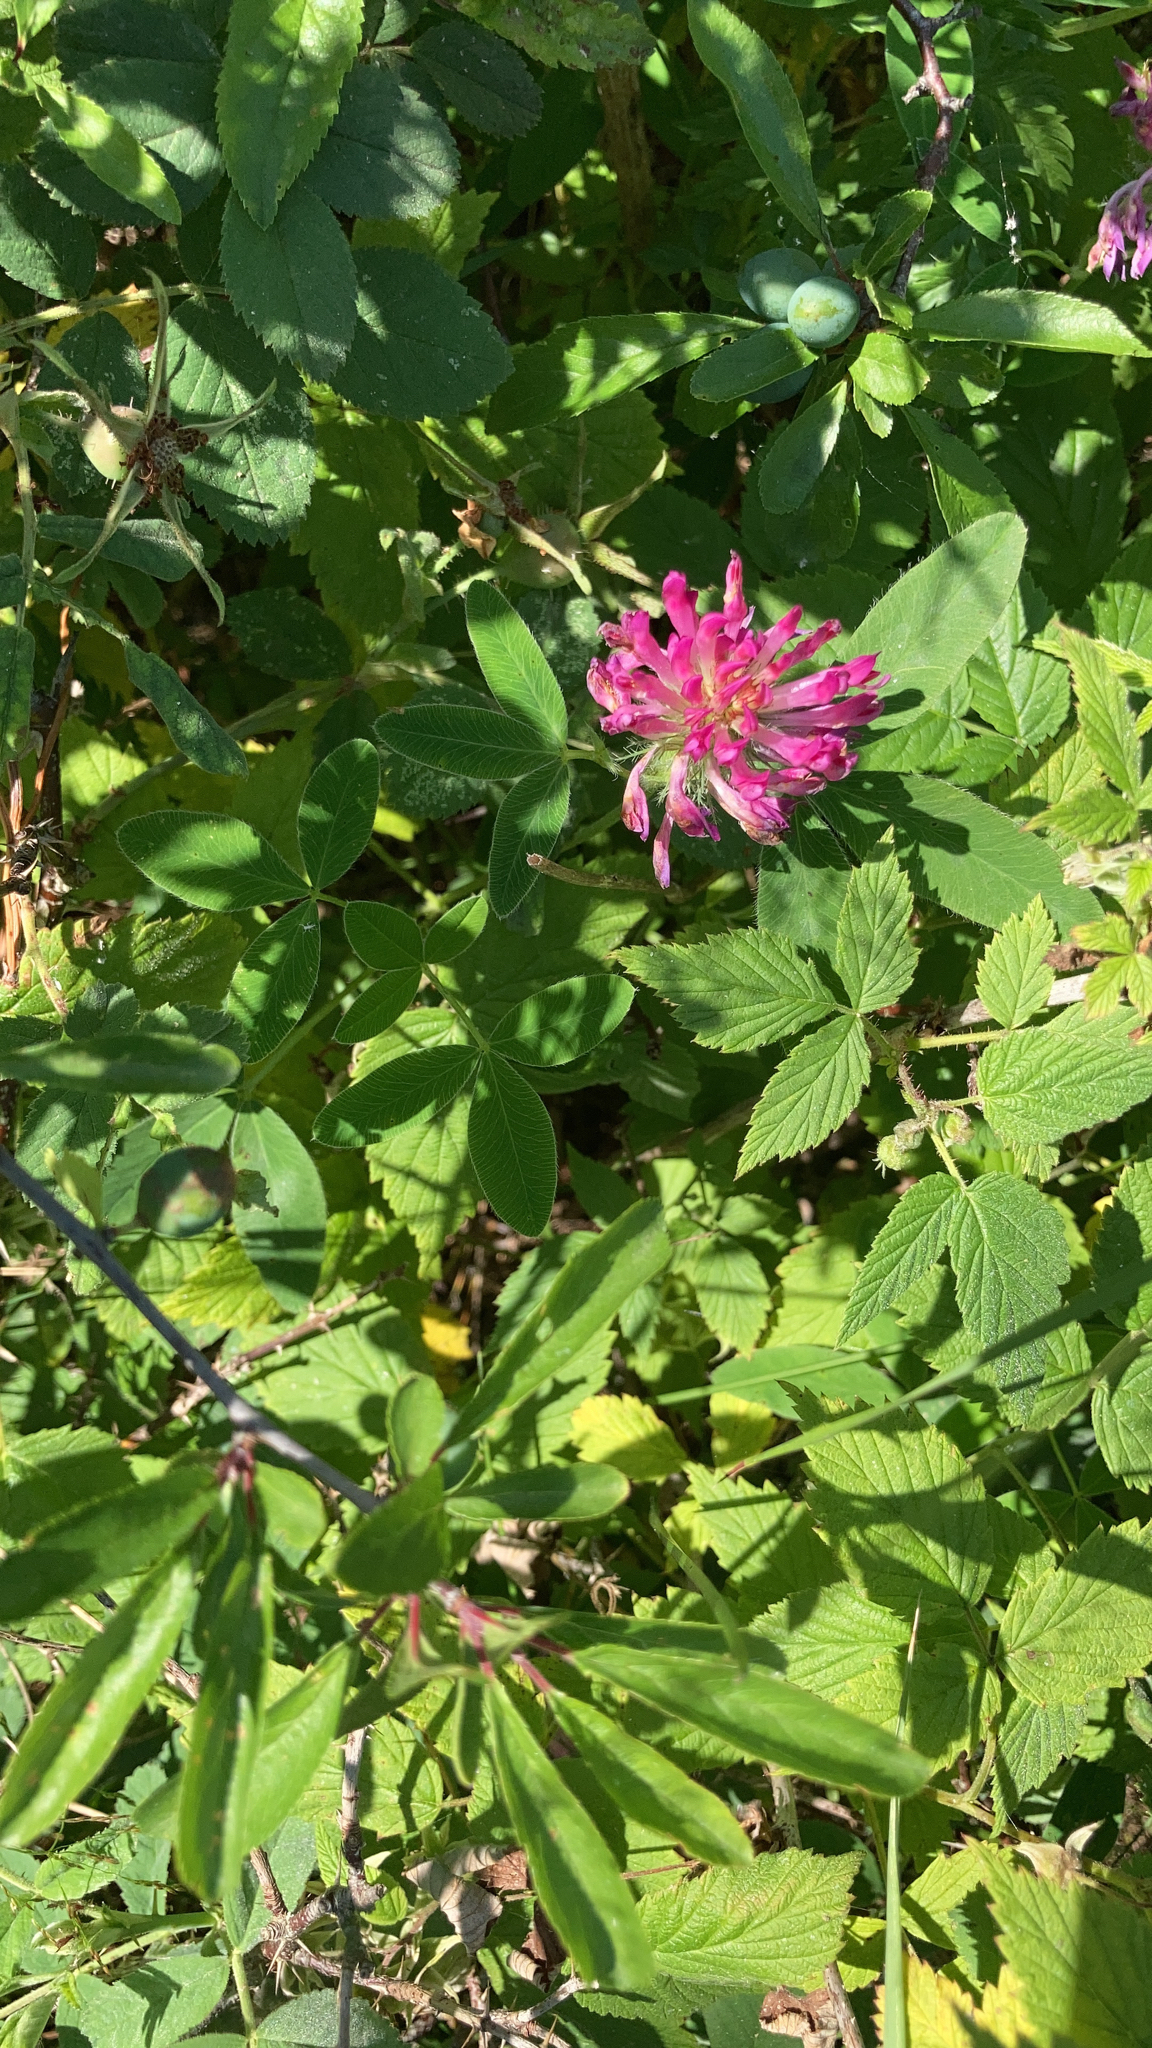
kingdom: Plantae
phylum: Tracheophyta
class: Magnoliopsida
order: Fabales
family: Fabaceae
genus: Trifolium
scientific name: Trifolium medium
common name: Zigzag clover
